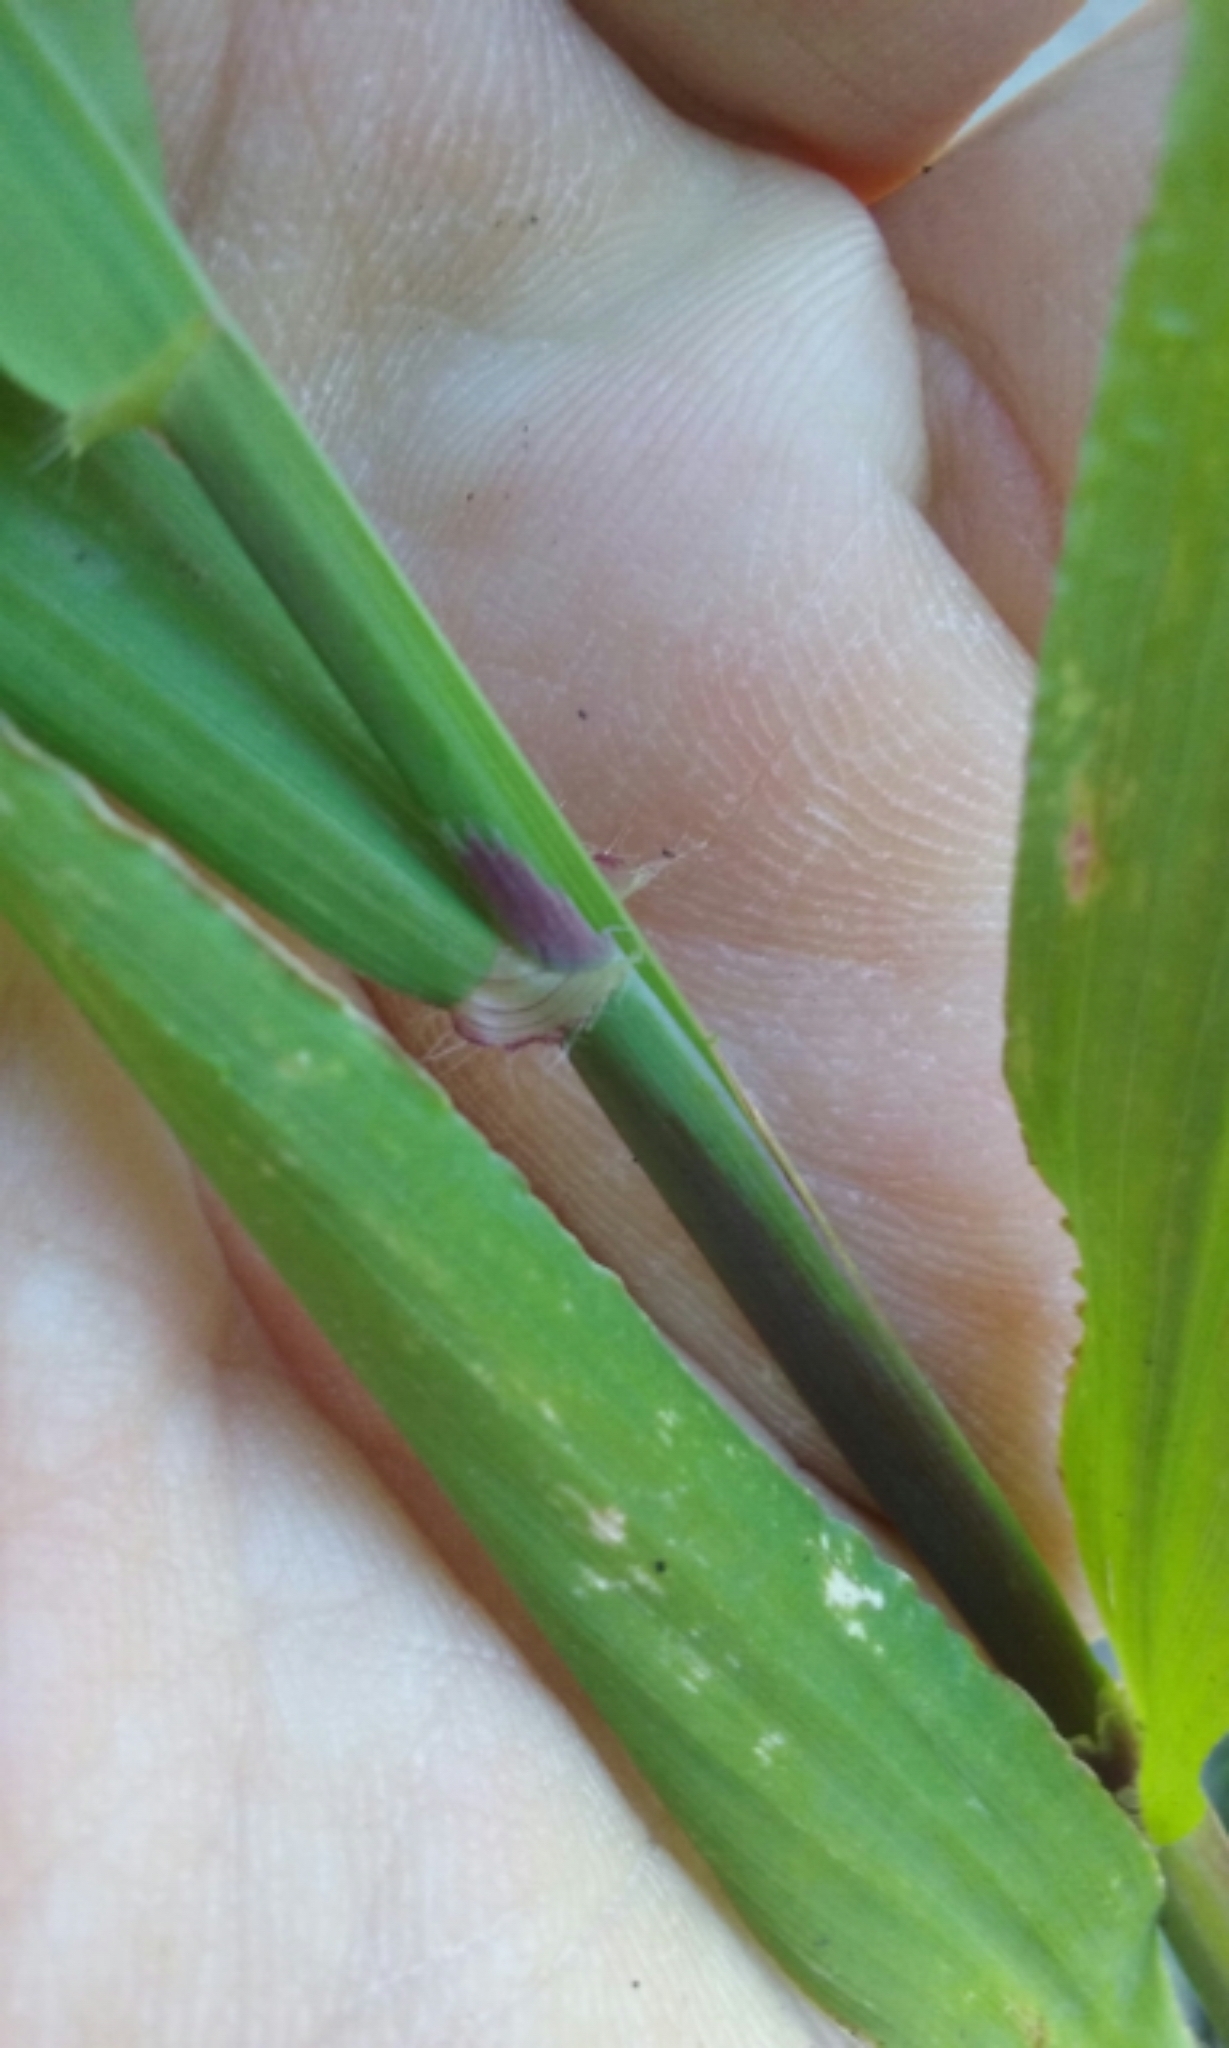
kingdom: Plantae
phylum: Tracheophyta
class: Liliopsida
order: Poales
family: Poaceae
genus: Ehrharta
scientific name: Ehrharta erecta
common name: Panic veldtgrass
